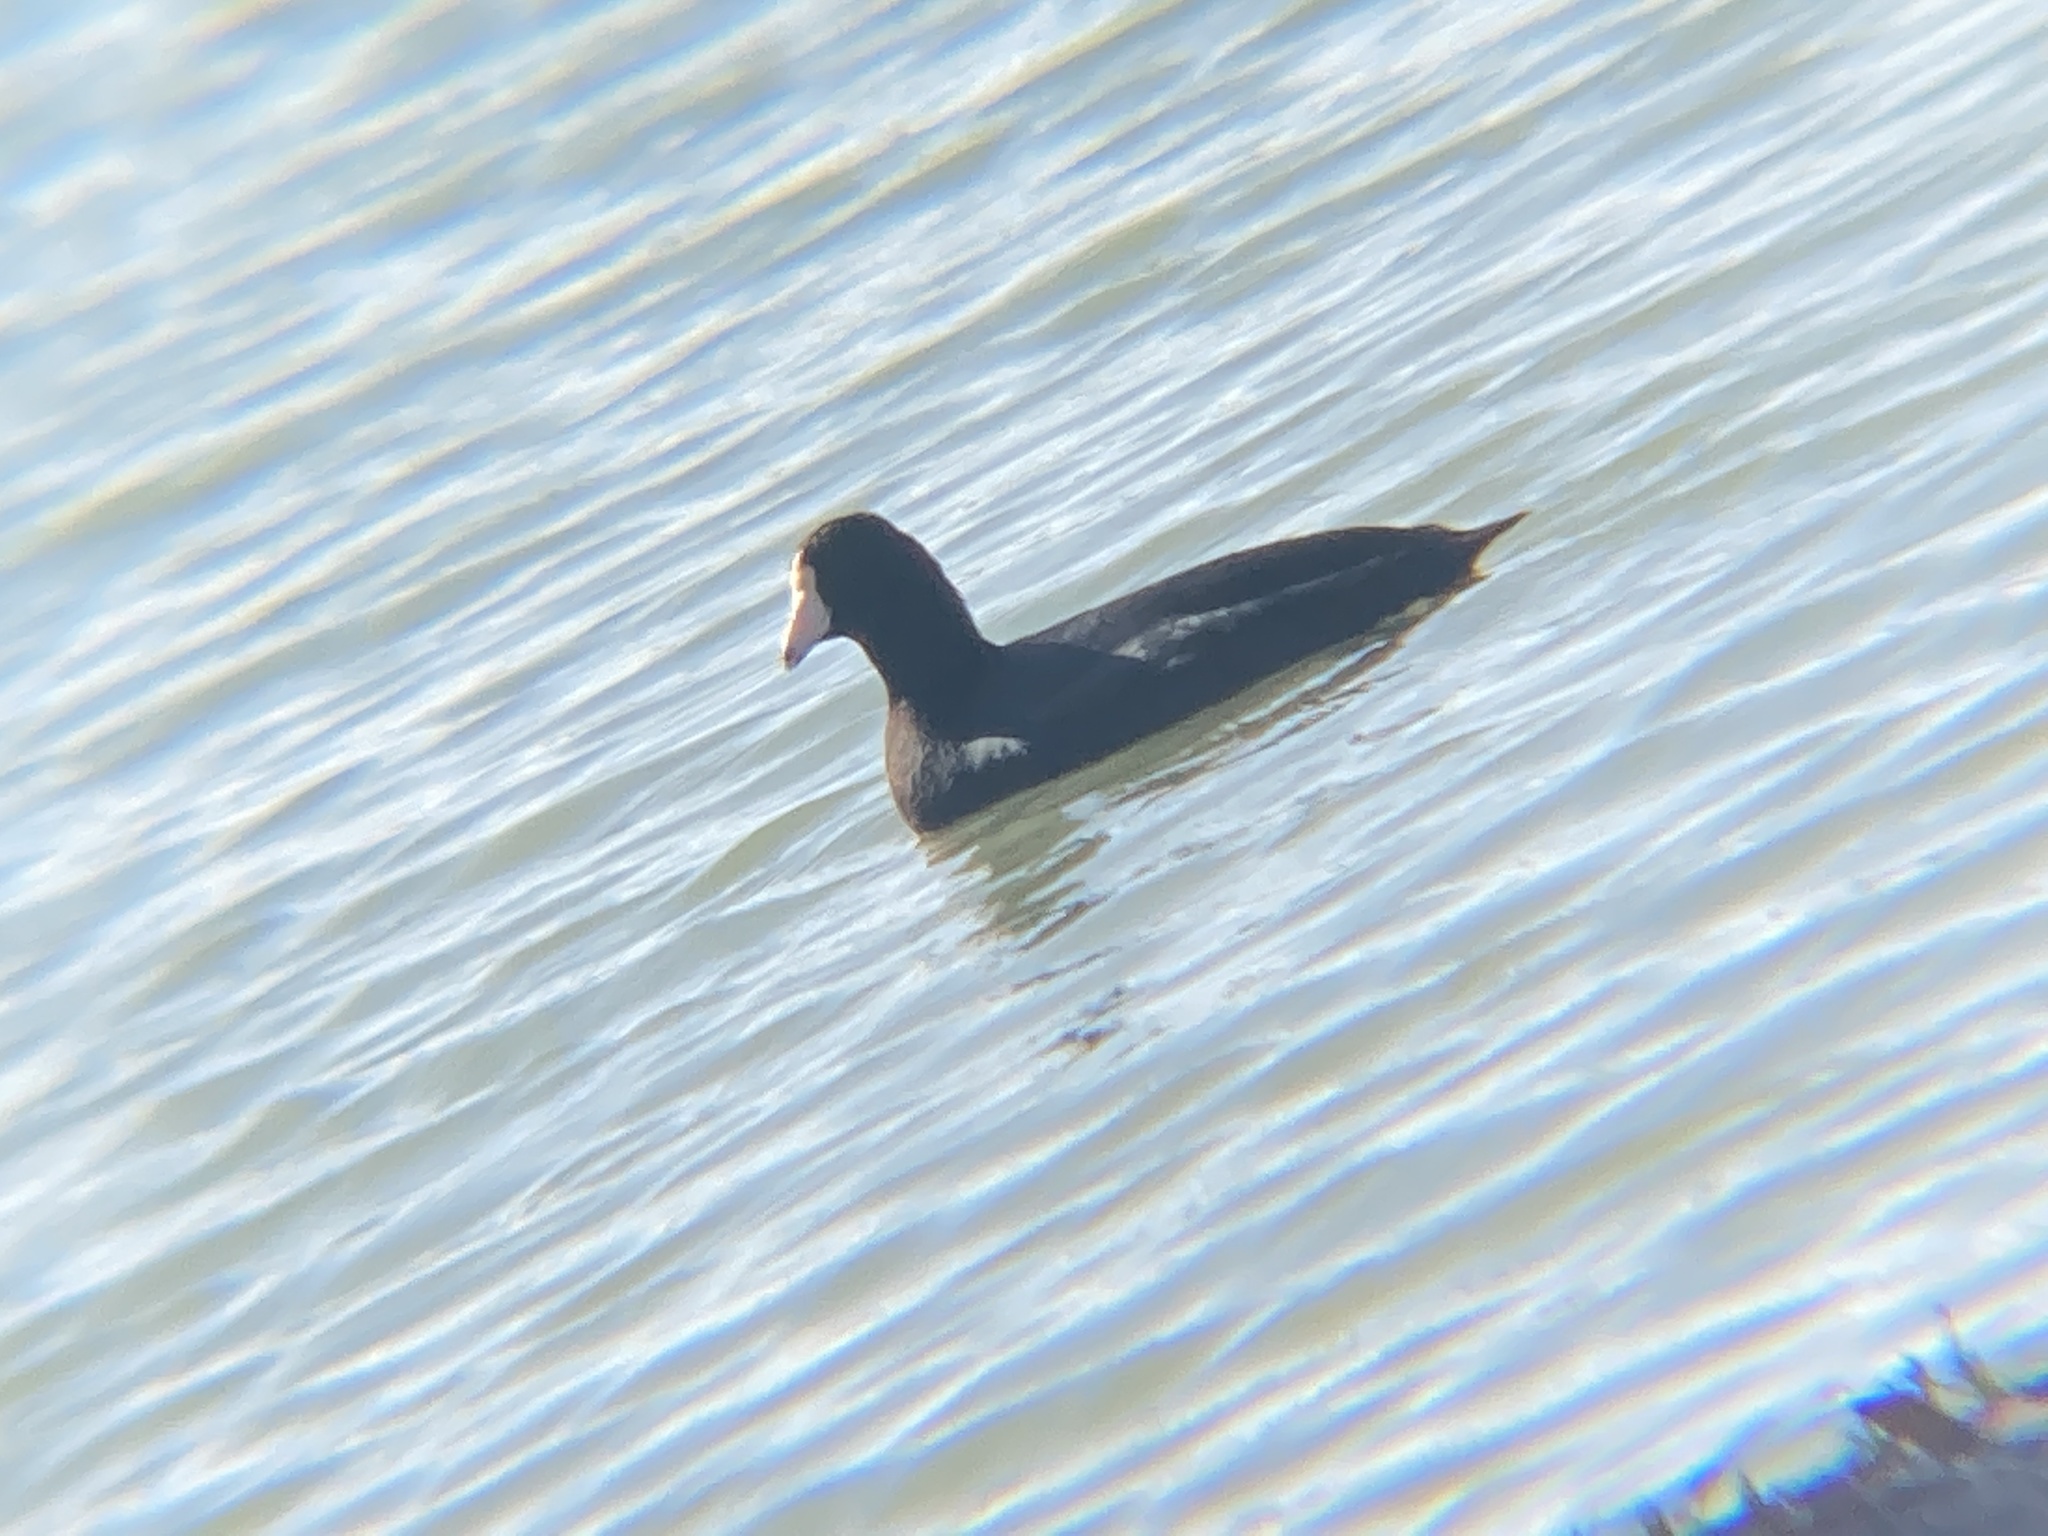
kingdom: Animalia
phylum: Chordata
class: Aves
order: Gruiformes
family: Rallidae
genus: Fulica
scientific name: Fulica americana
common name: American coot
